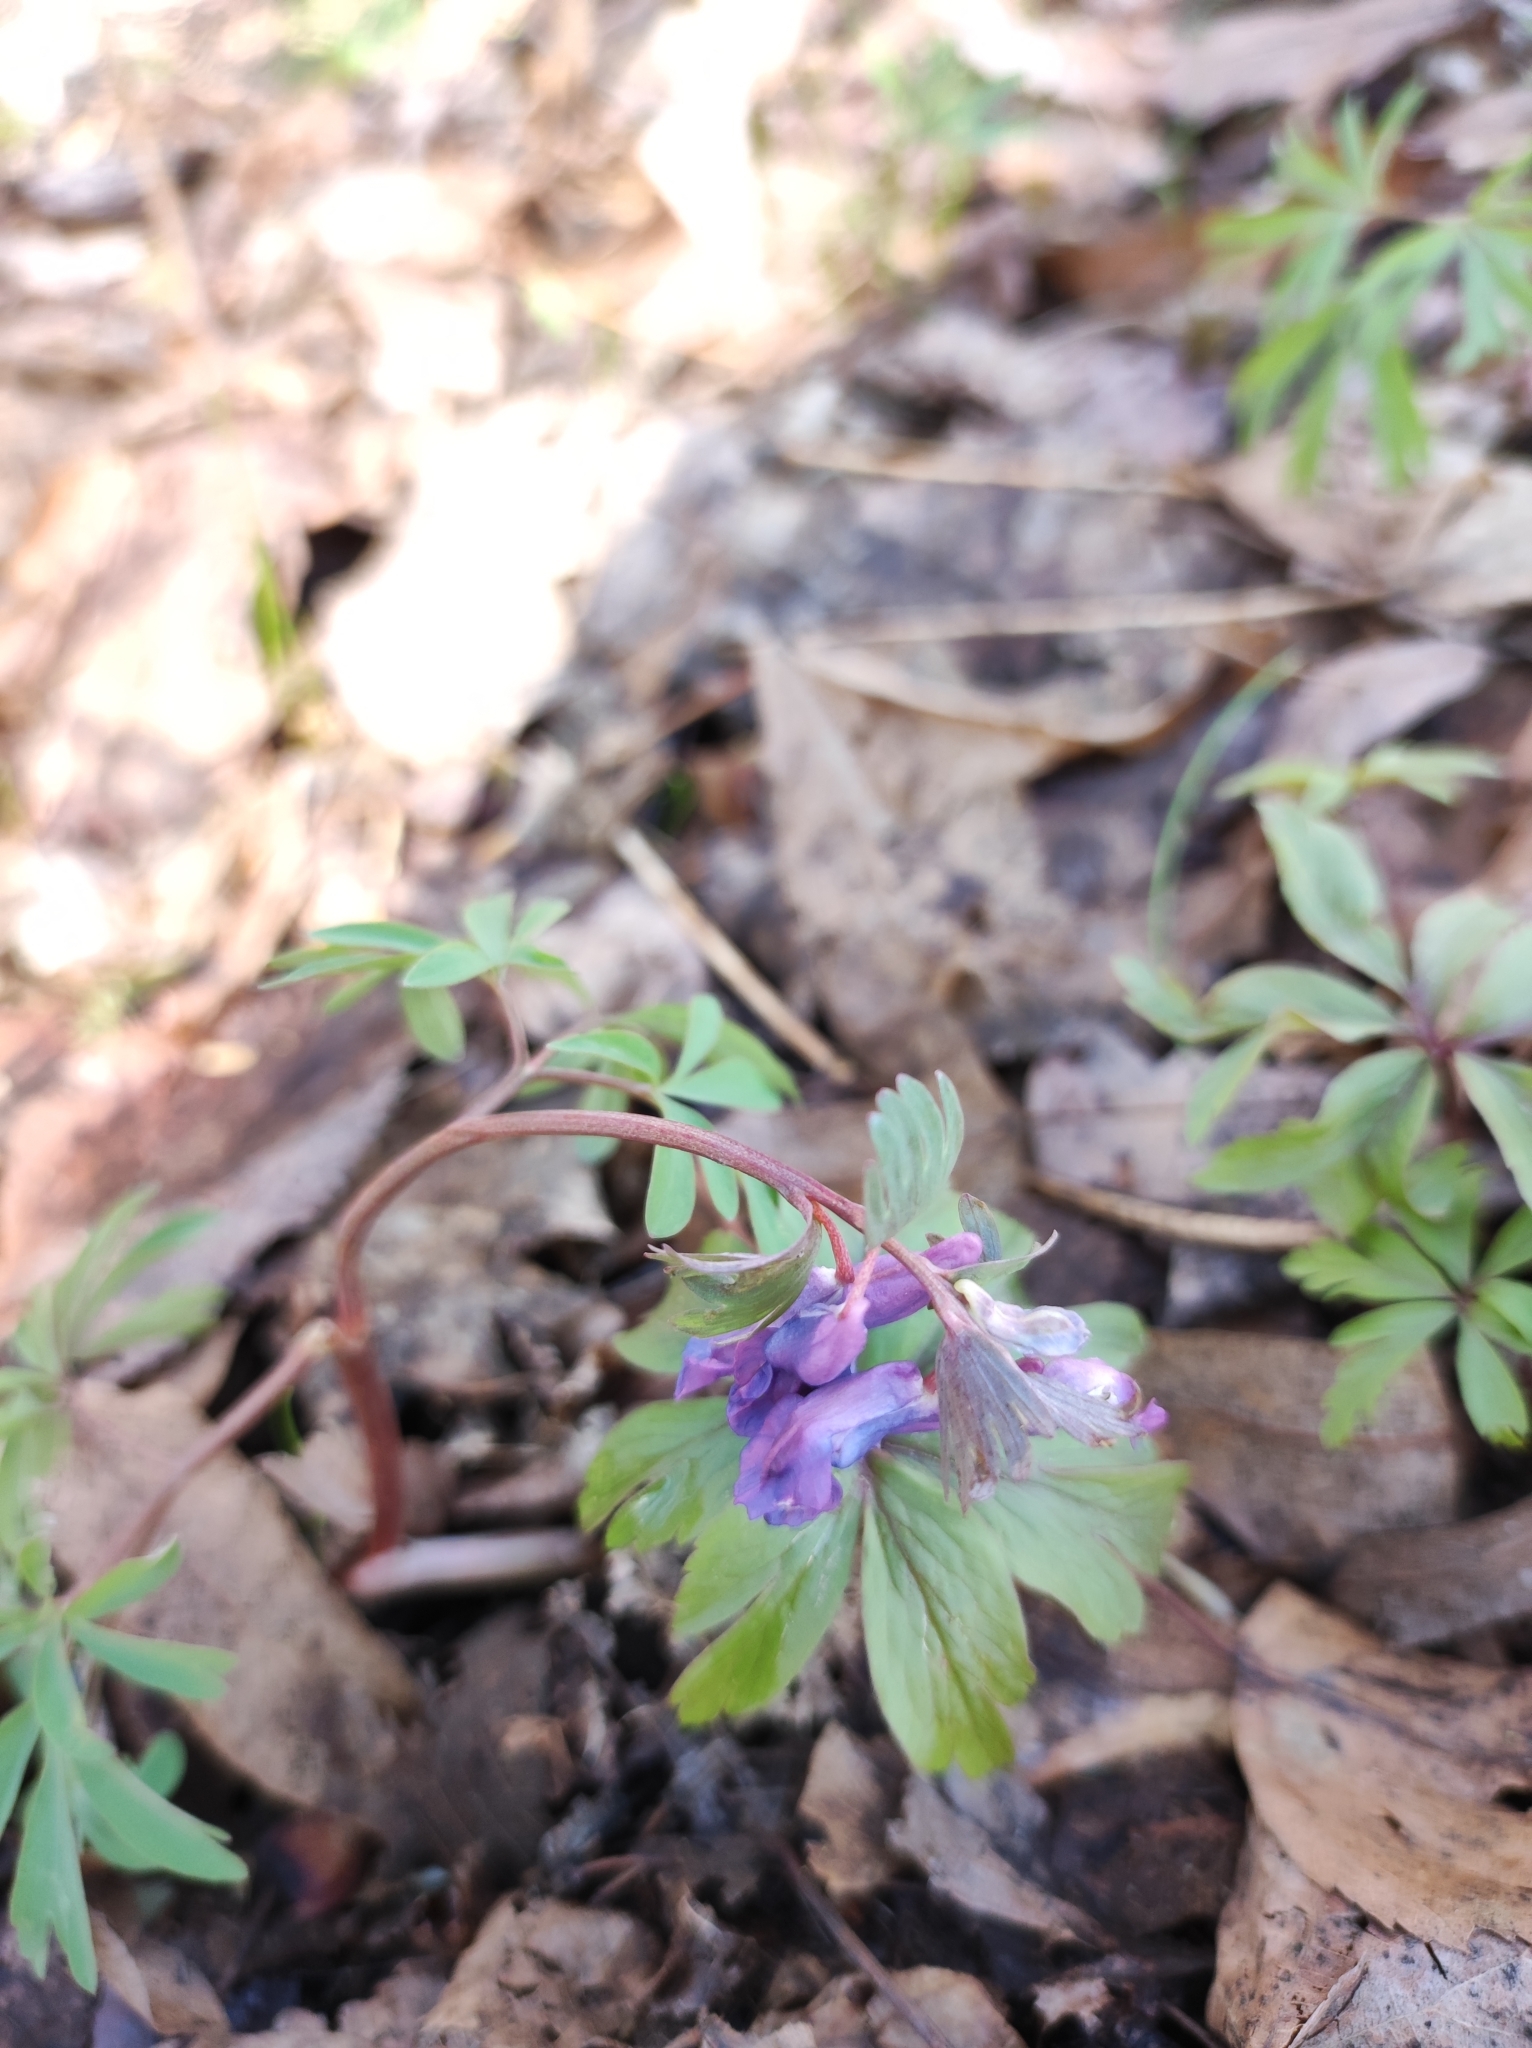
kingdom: Plantae
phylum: Tracheophyta
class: Magnoliopsida
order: Ranunculales
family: Papaveraceae
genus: Corydalis
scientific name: Corydalis solida
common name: Bird-in-a-bush
